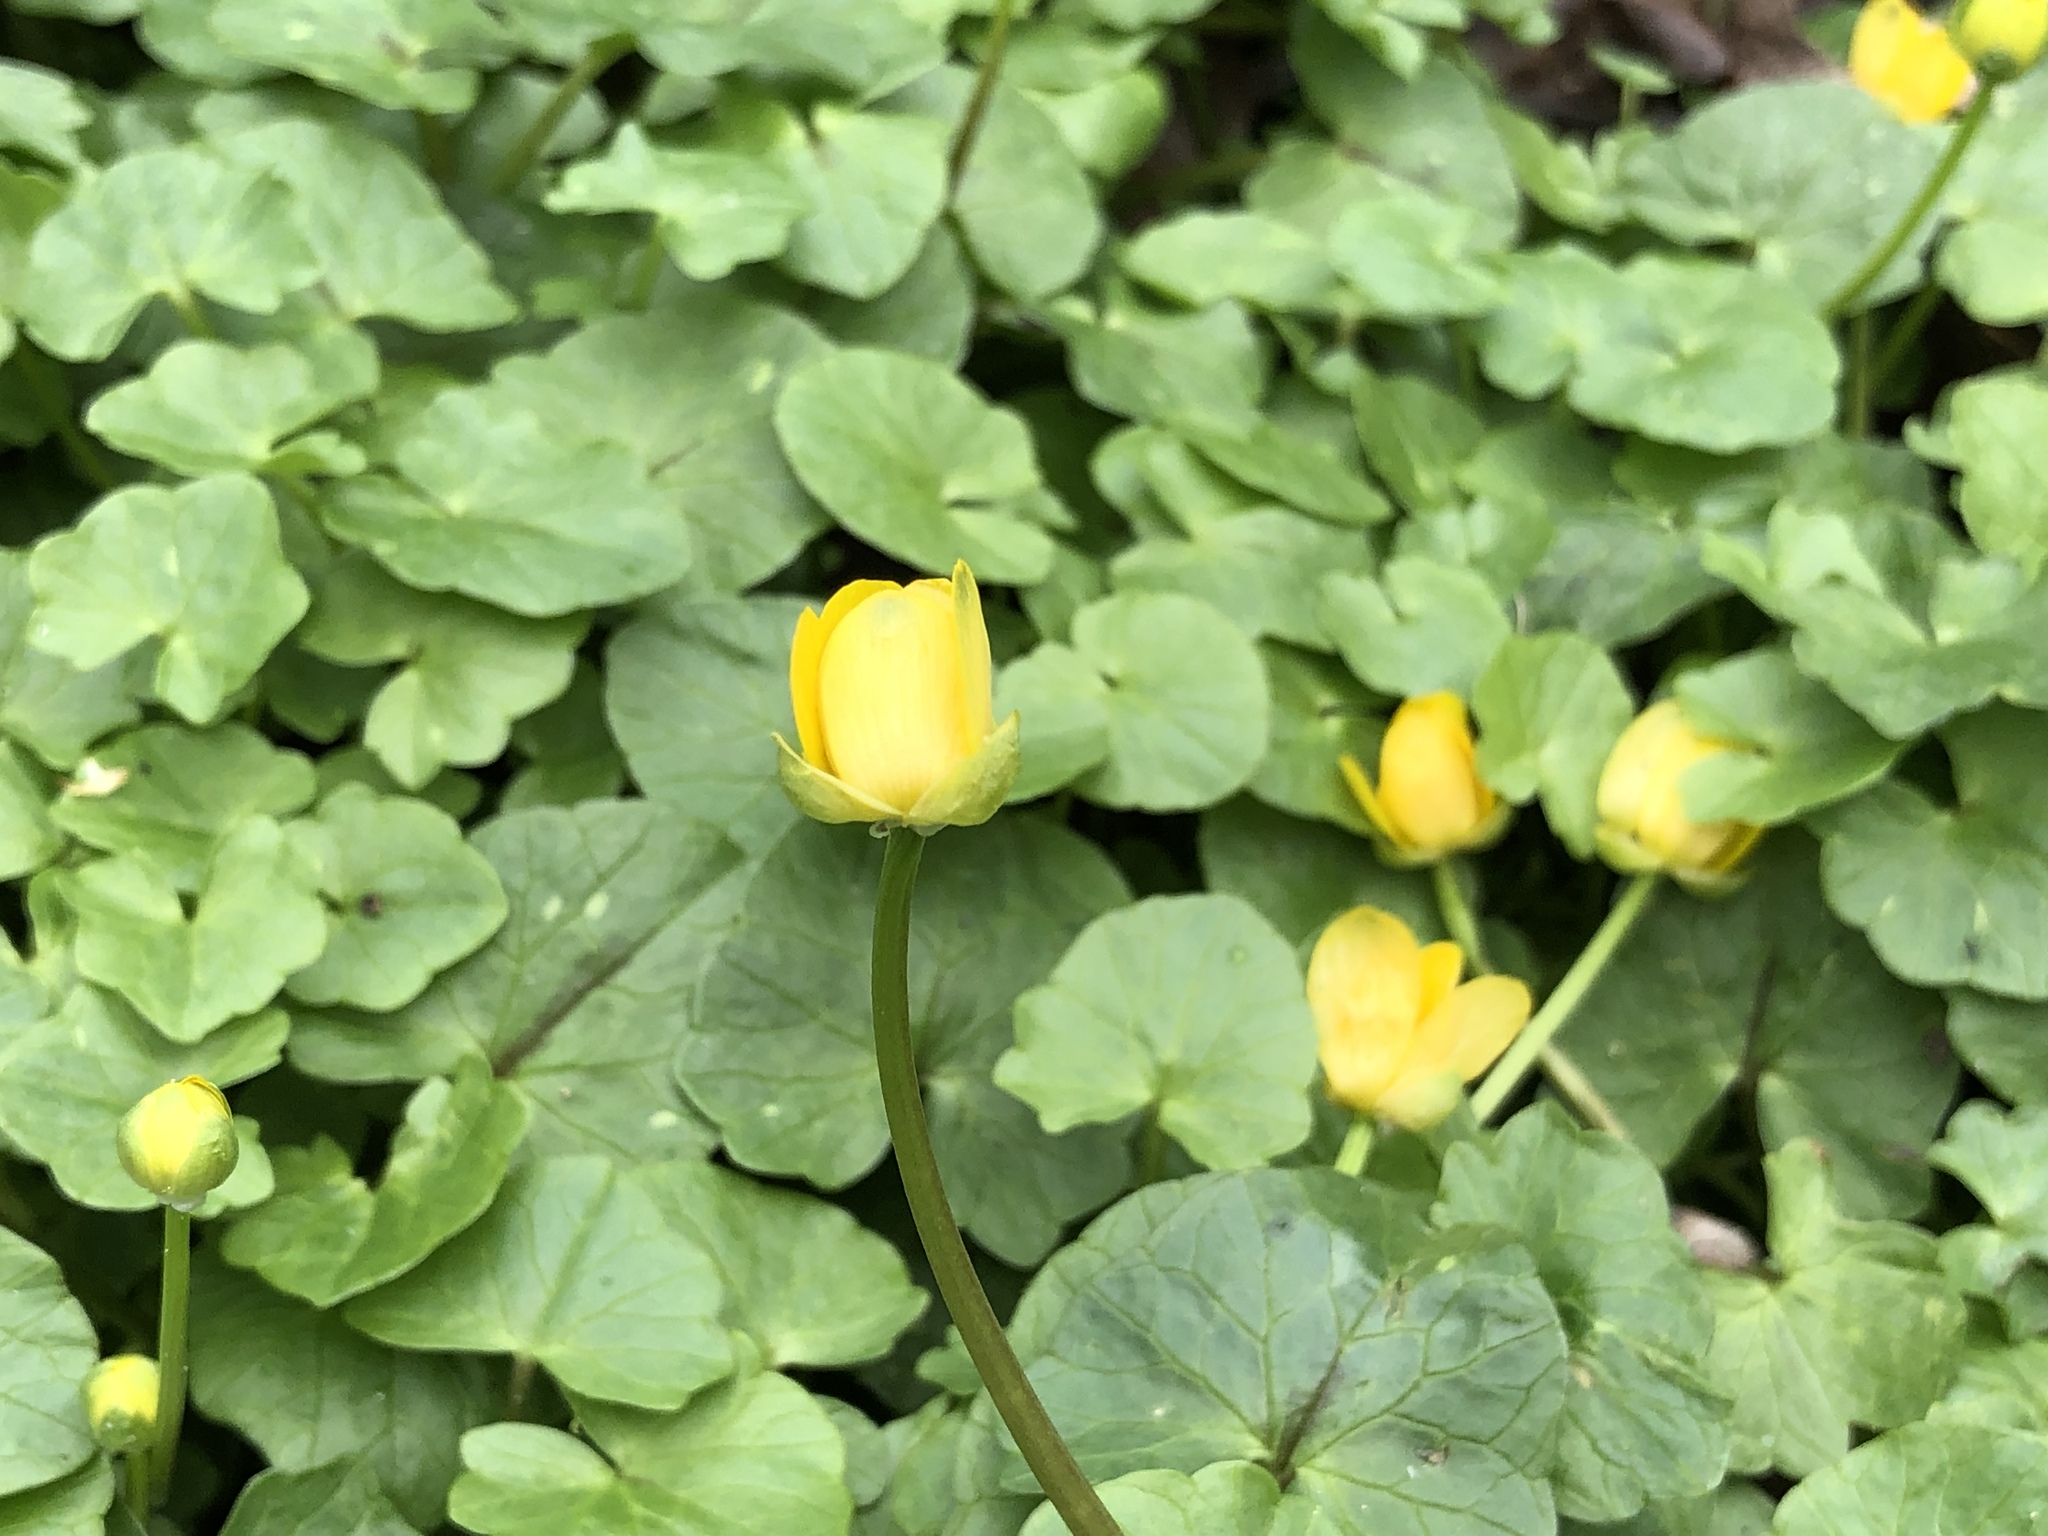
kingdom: Plantae
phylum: Tracheophyta
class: Magnoliopsida
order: Ranunculales
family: Ranunculaceae
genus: Ficaria
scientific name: Ficaria verna
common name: Lesser celandine
